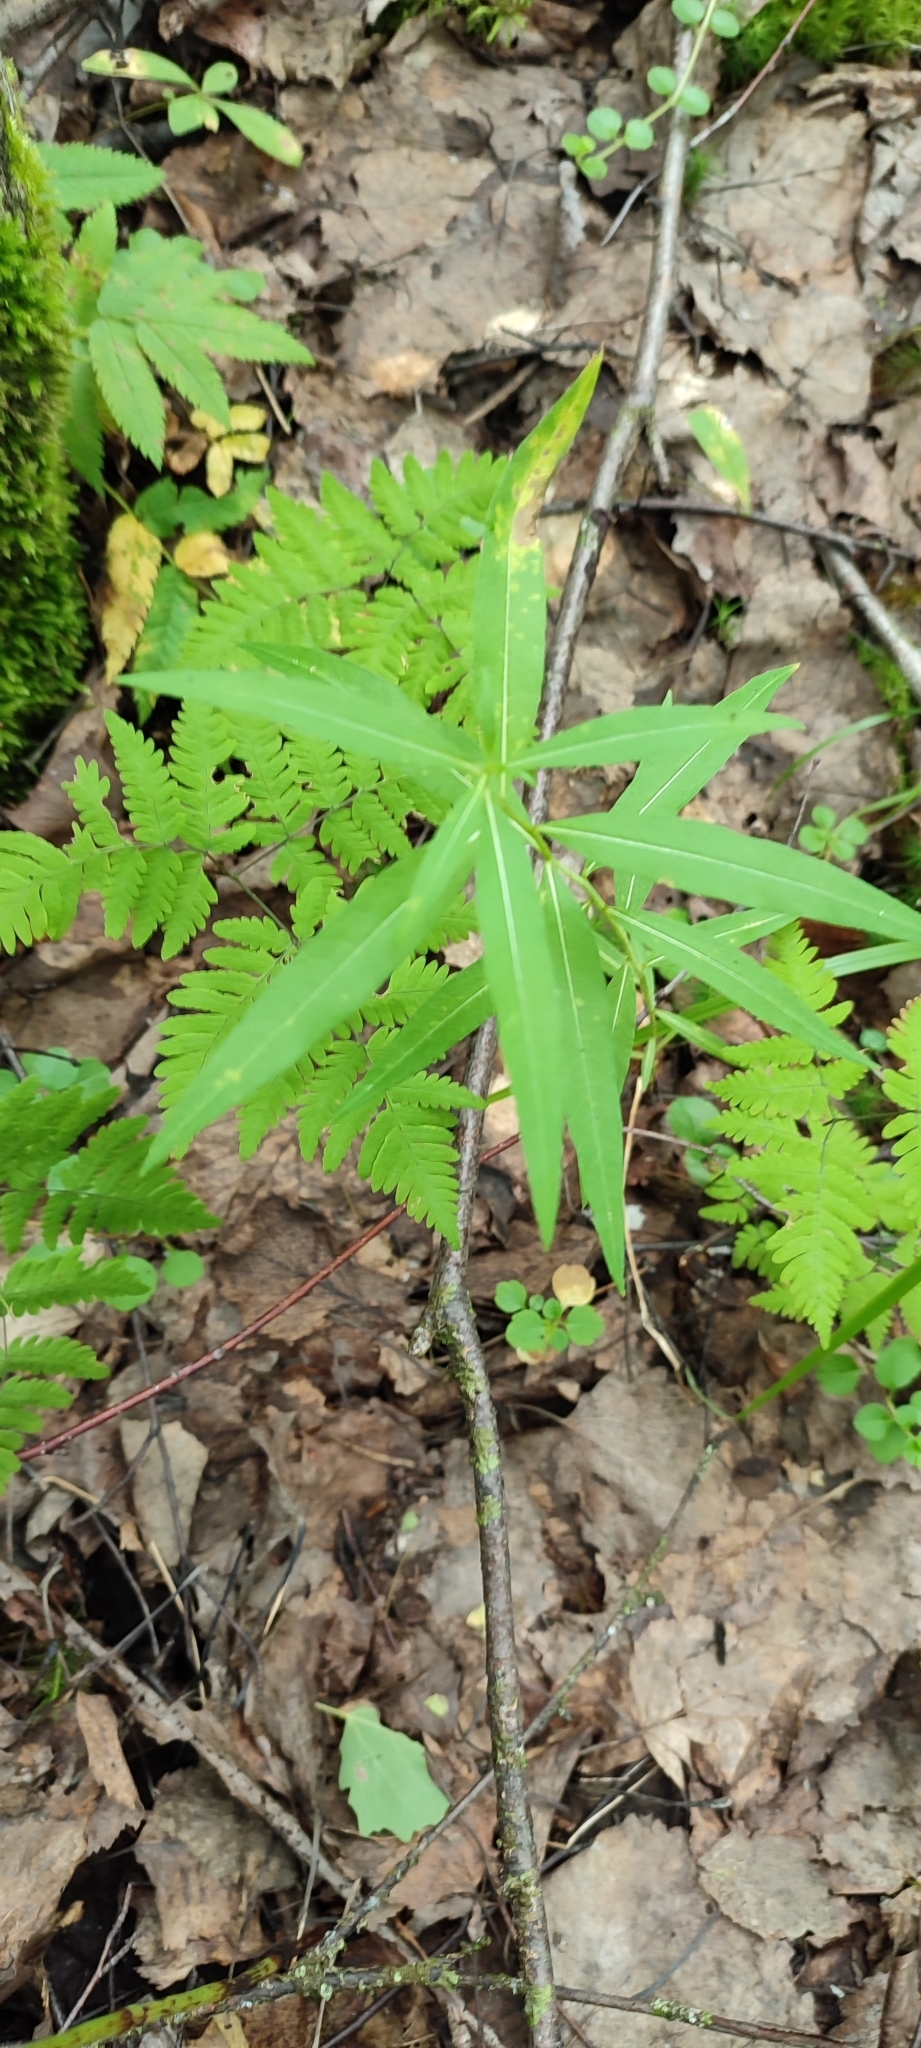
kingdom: Plantae
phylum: Tracheophyta
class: Magnoliopsida
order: Myrtales
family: Onagraceae
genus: Chamaenerion
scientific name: Chamaenerion angustifolium
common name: Fireweed
